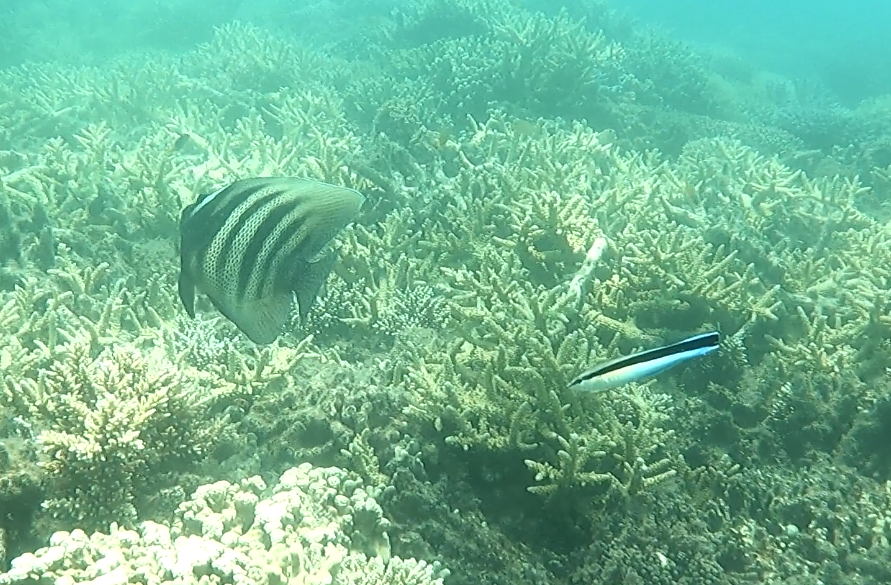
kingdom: Animalia
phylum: Chordata
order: Perciformes
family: Pomacanthidae
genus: Pomacanthus
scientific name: Pomacanthus sexstriatus
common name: Six-banded angelfish
